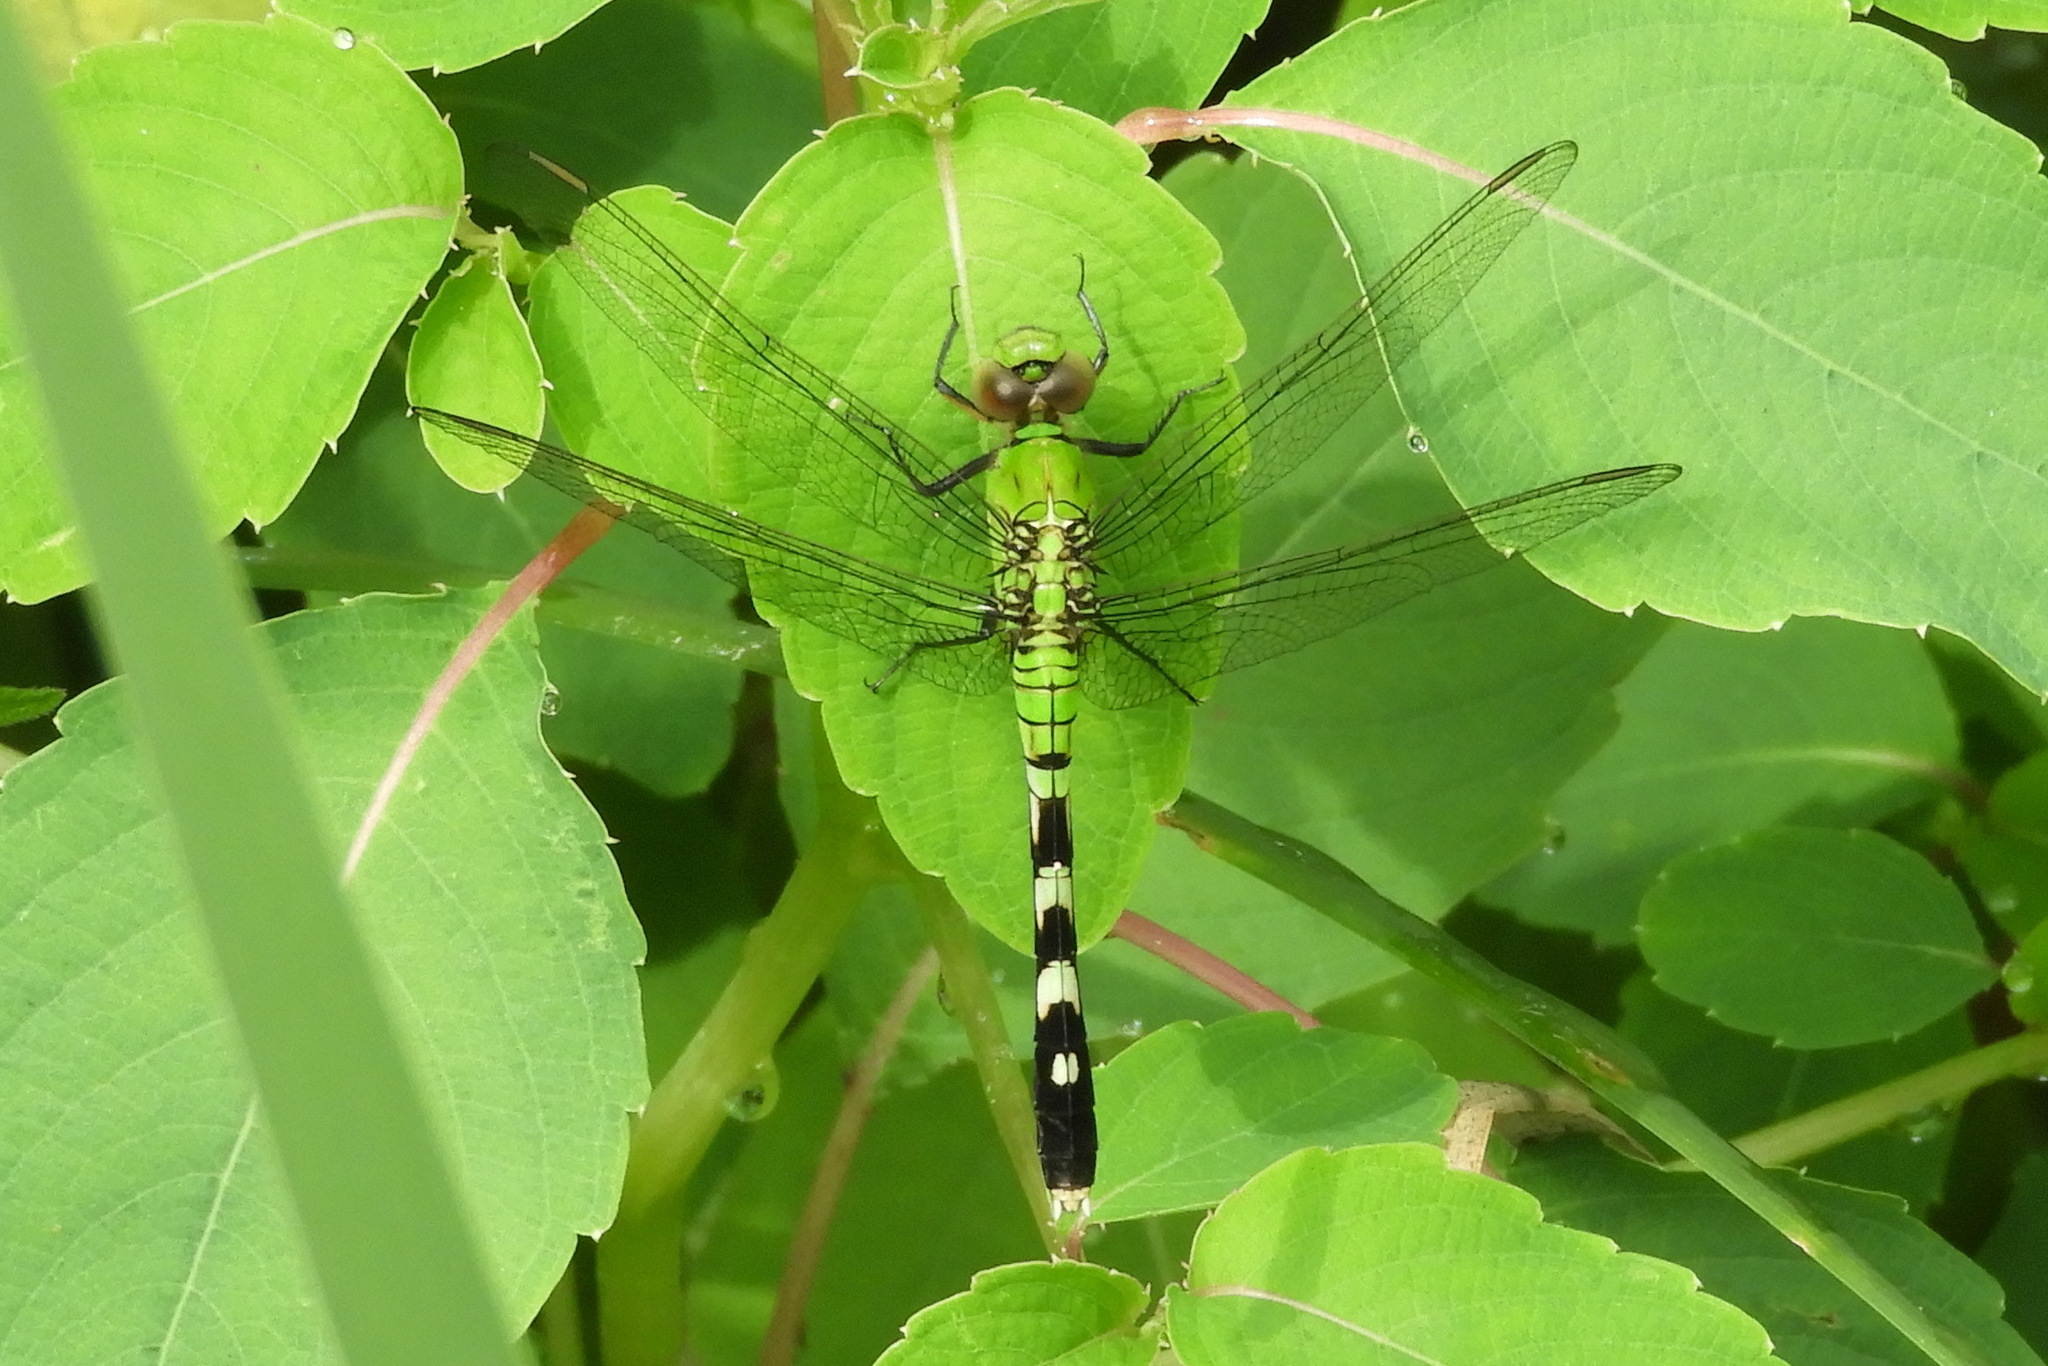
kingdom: Animalia
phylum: Arthropoda
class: Insecta
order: Odonata
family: Libellulidae
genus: Erythemis
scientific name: Erythemis simplicicollis
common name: Eastern pondhawk
